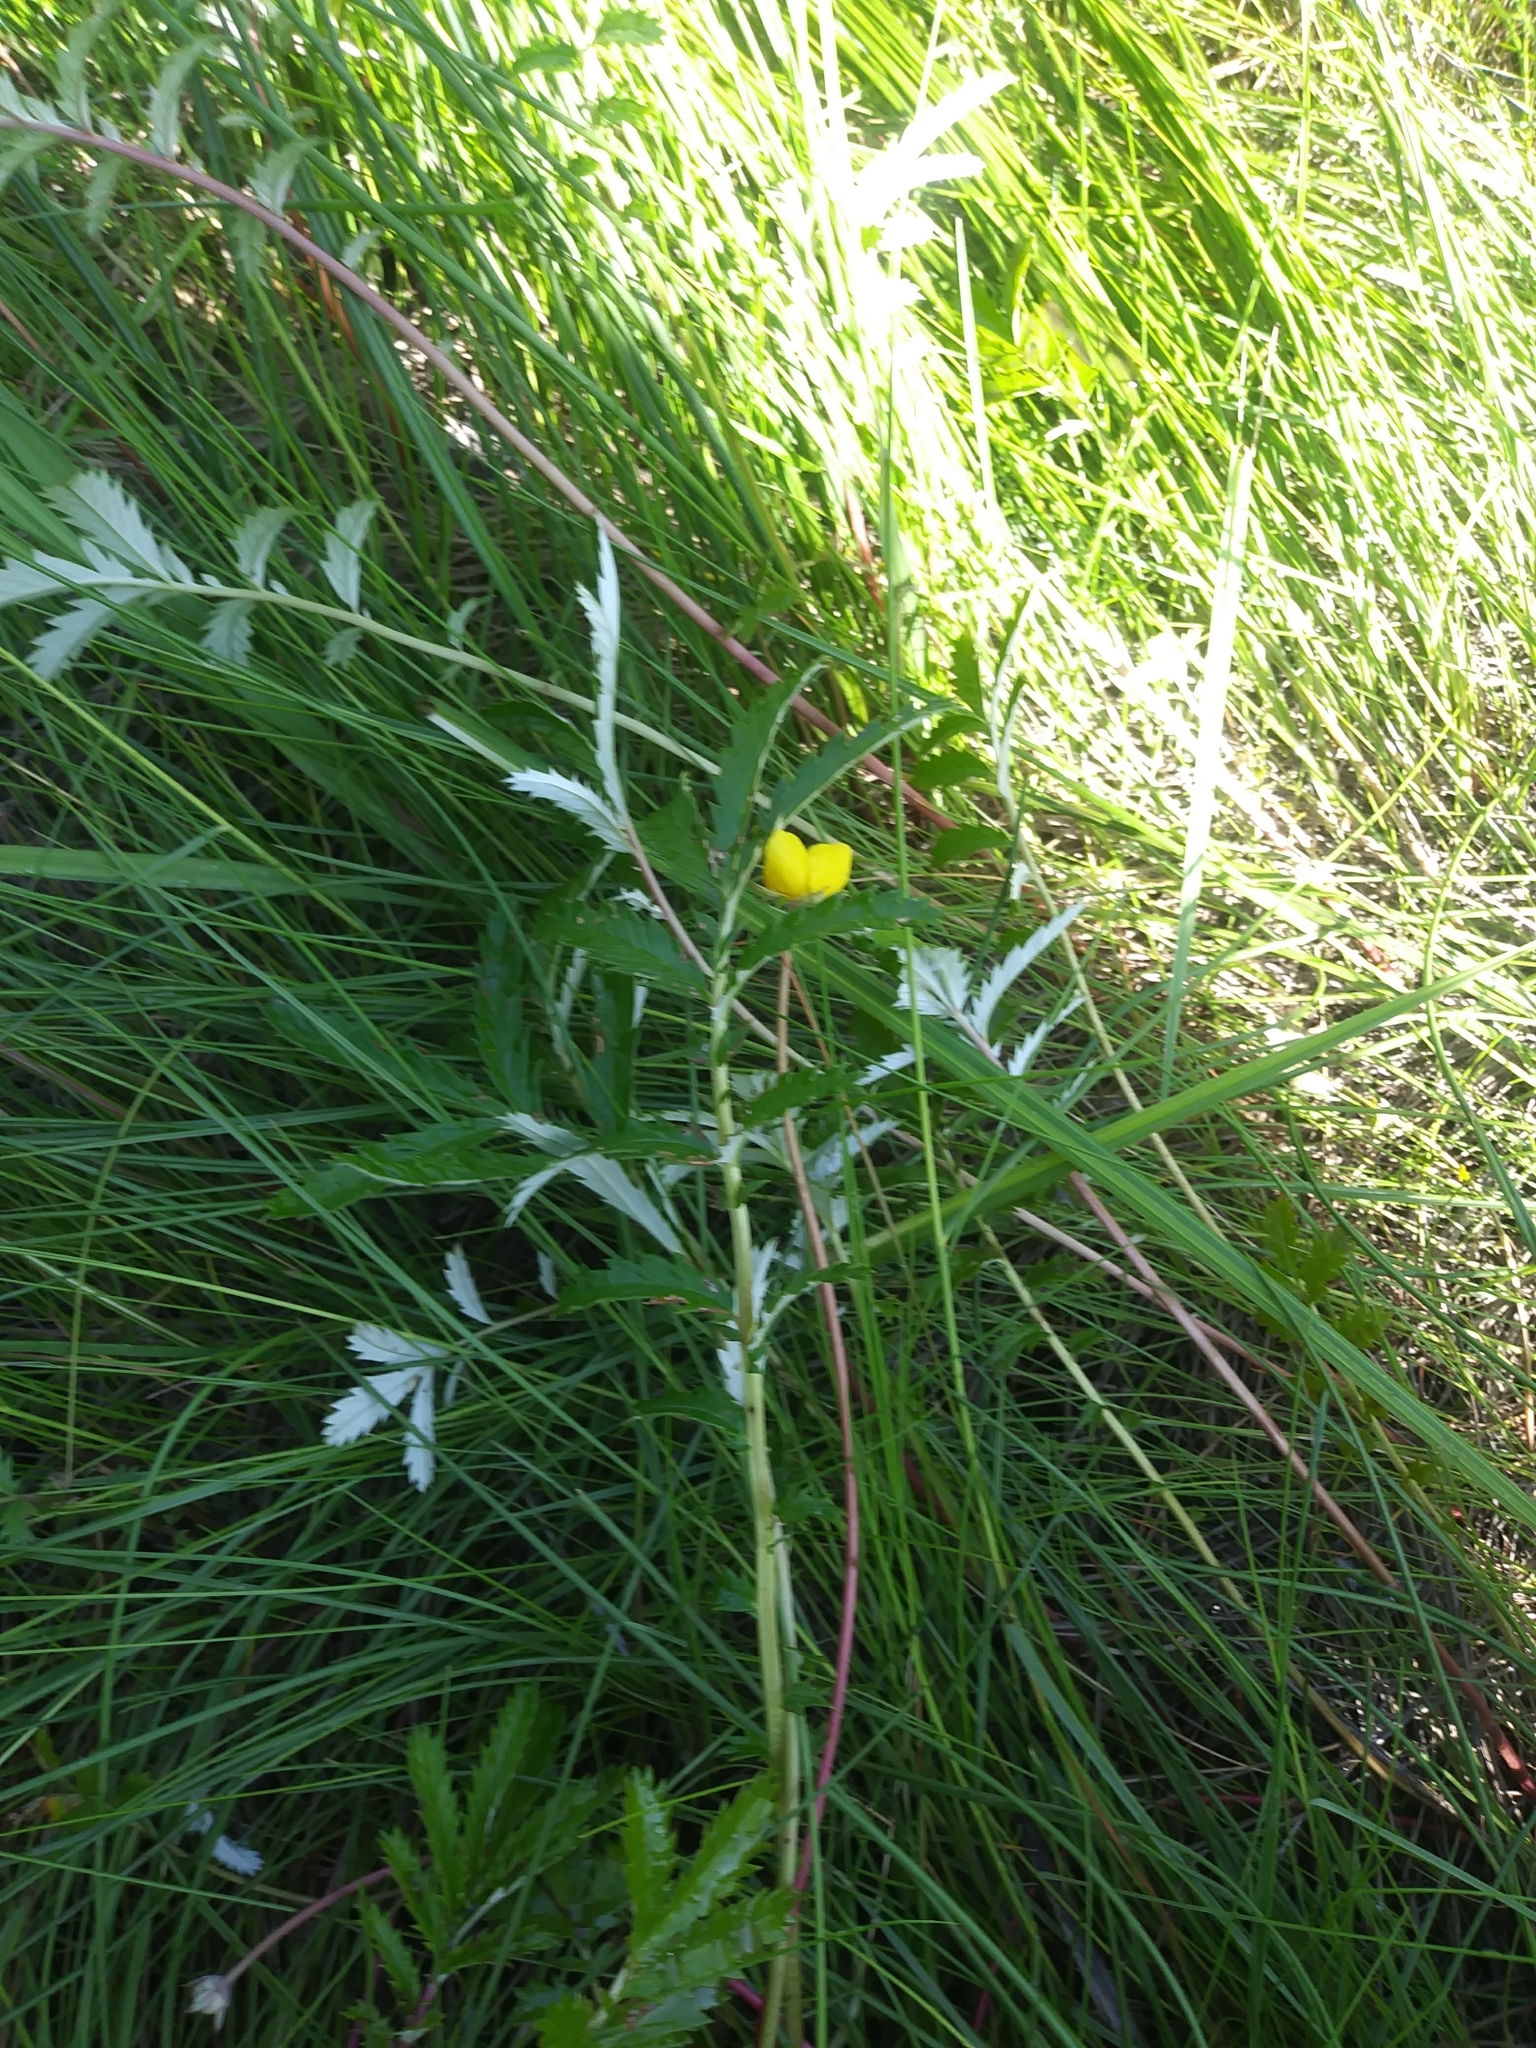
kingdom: Plantae
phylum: Tracheophyta
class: Magnoliopsida
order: Rosales
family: Rosaceae
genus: Argentina
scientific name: Argentina anserina
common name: Common silverweed
